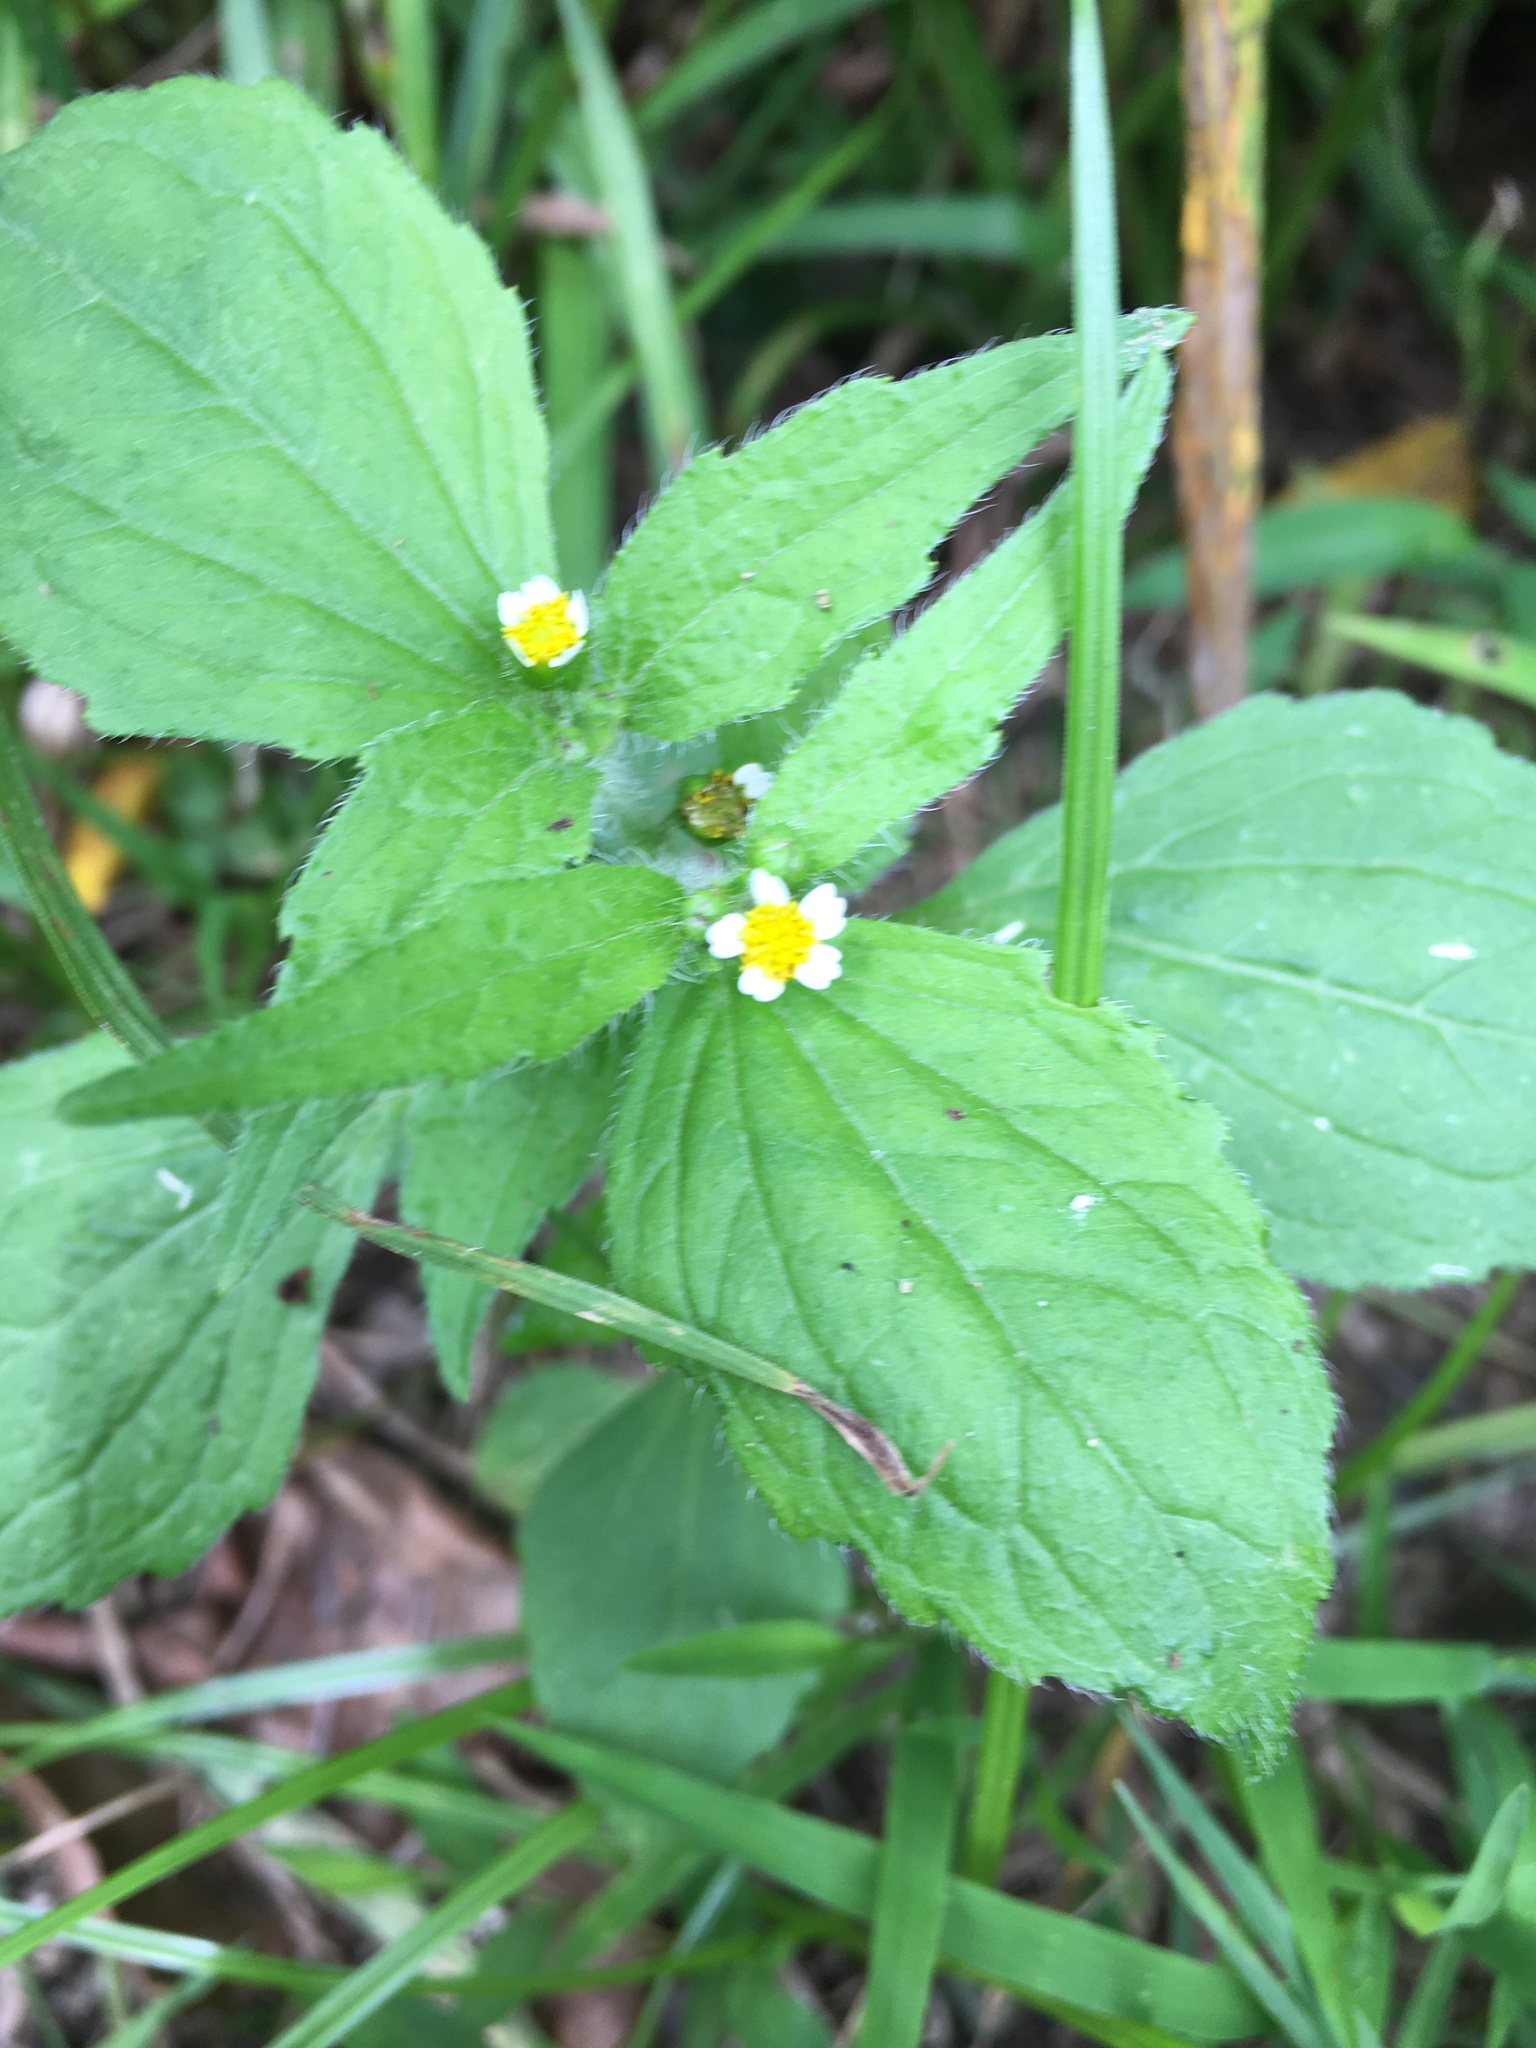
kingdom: Plantae
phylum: Tracheophyta
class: Magnoliopsida
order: Asterales
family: Asteraceae
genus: Galinsoga
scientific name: Galinsoga quadriradiata
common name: Shaggy soldier
